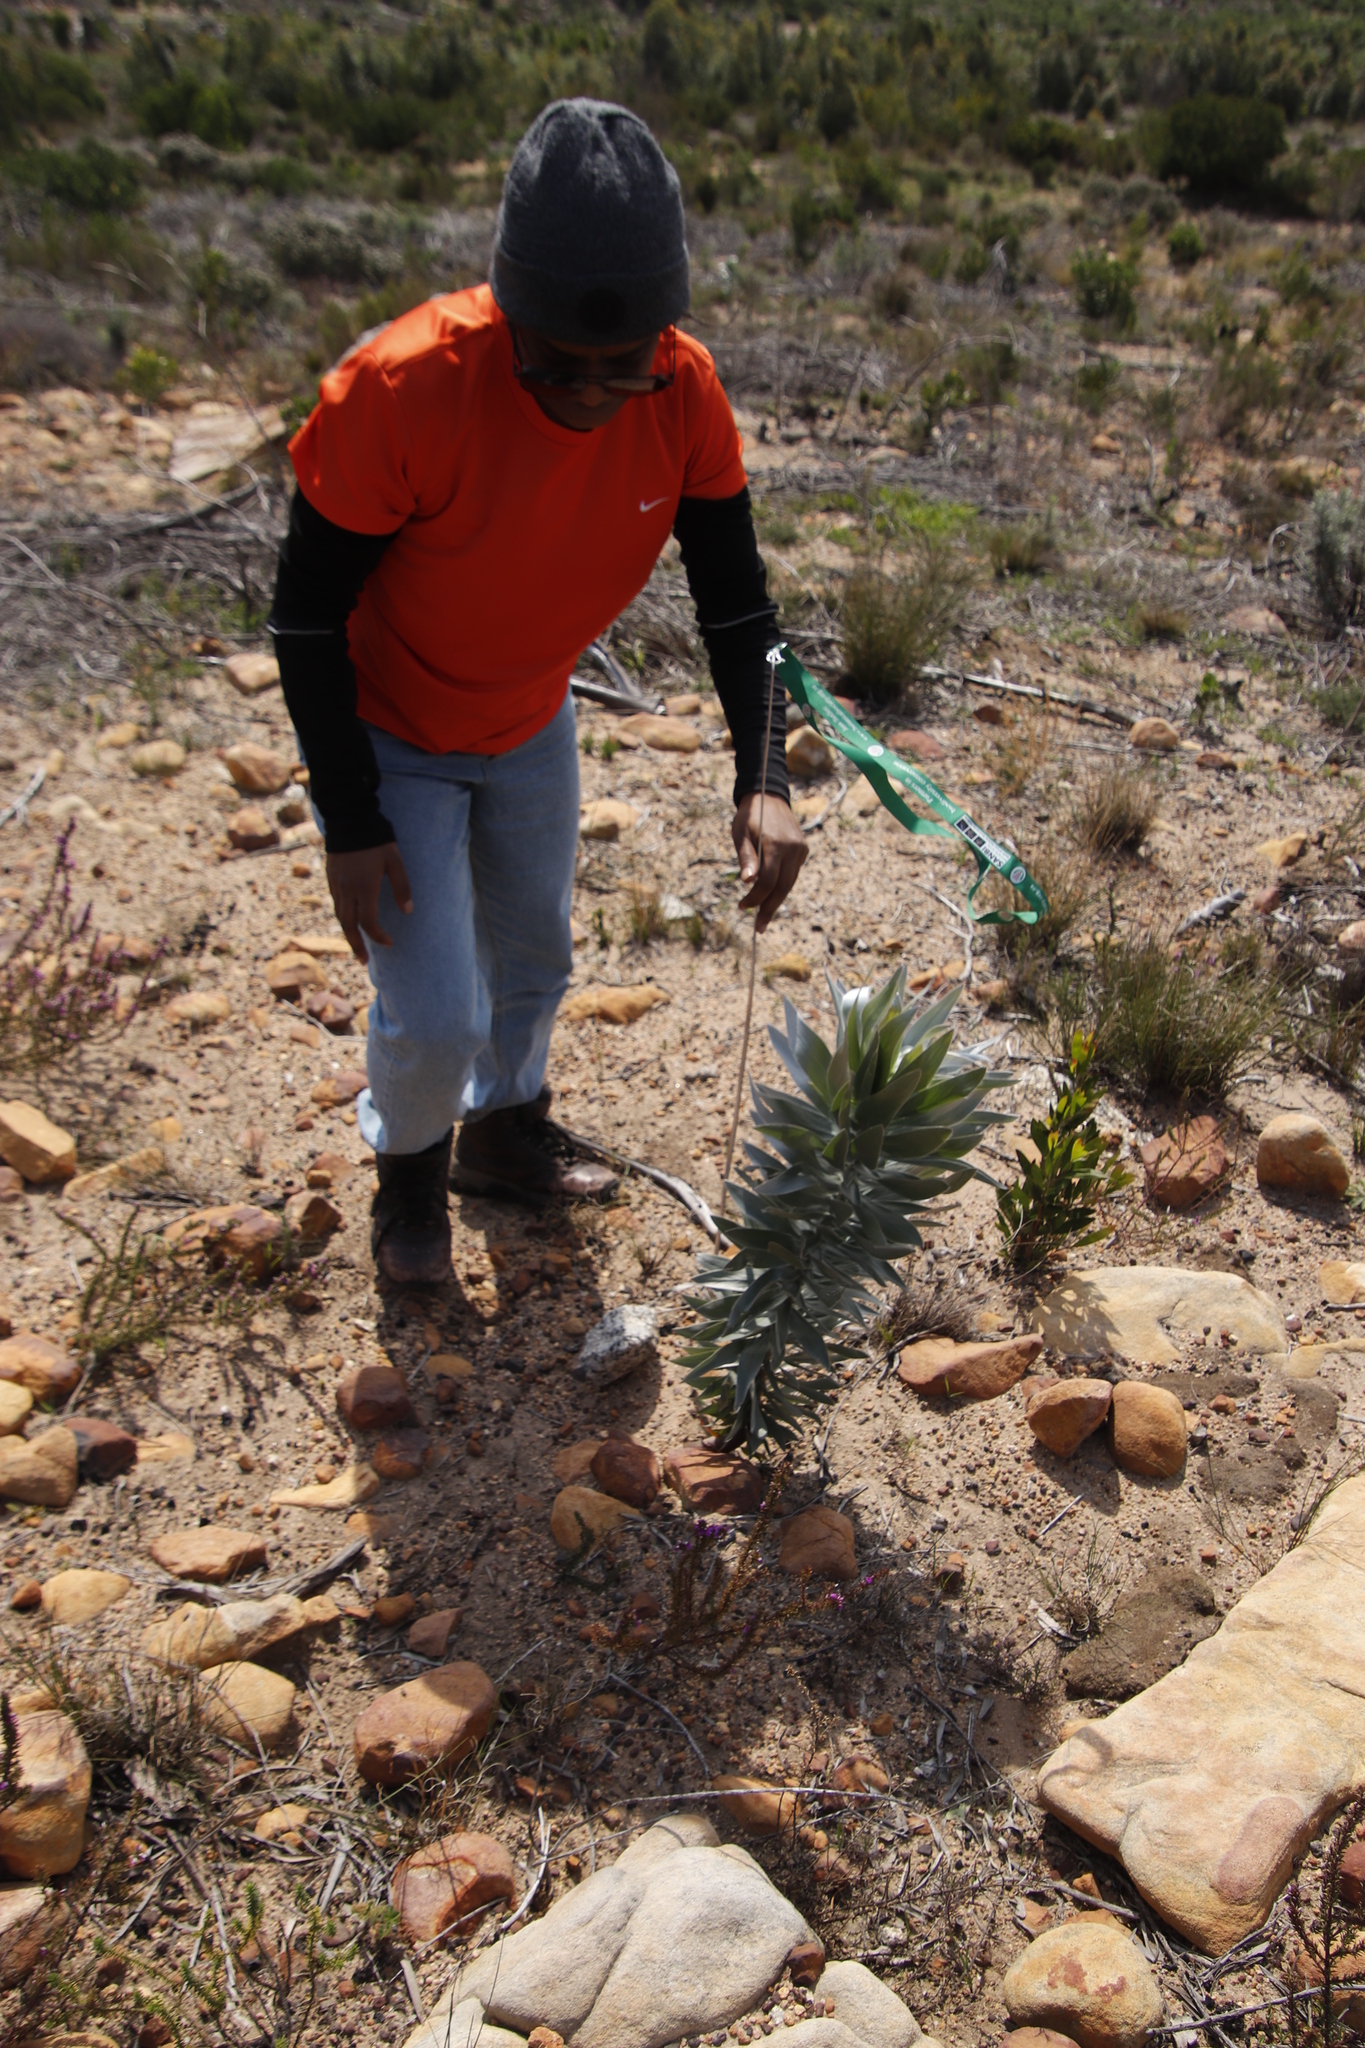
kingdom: Plantae
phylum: Tracheophyta
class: Magnoliopsida
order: Proteales
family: Proteaceae
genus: Leucadendron
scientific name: Leucadendron argenteum
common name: Cape silver tree
